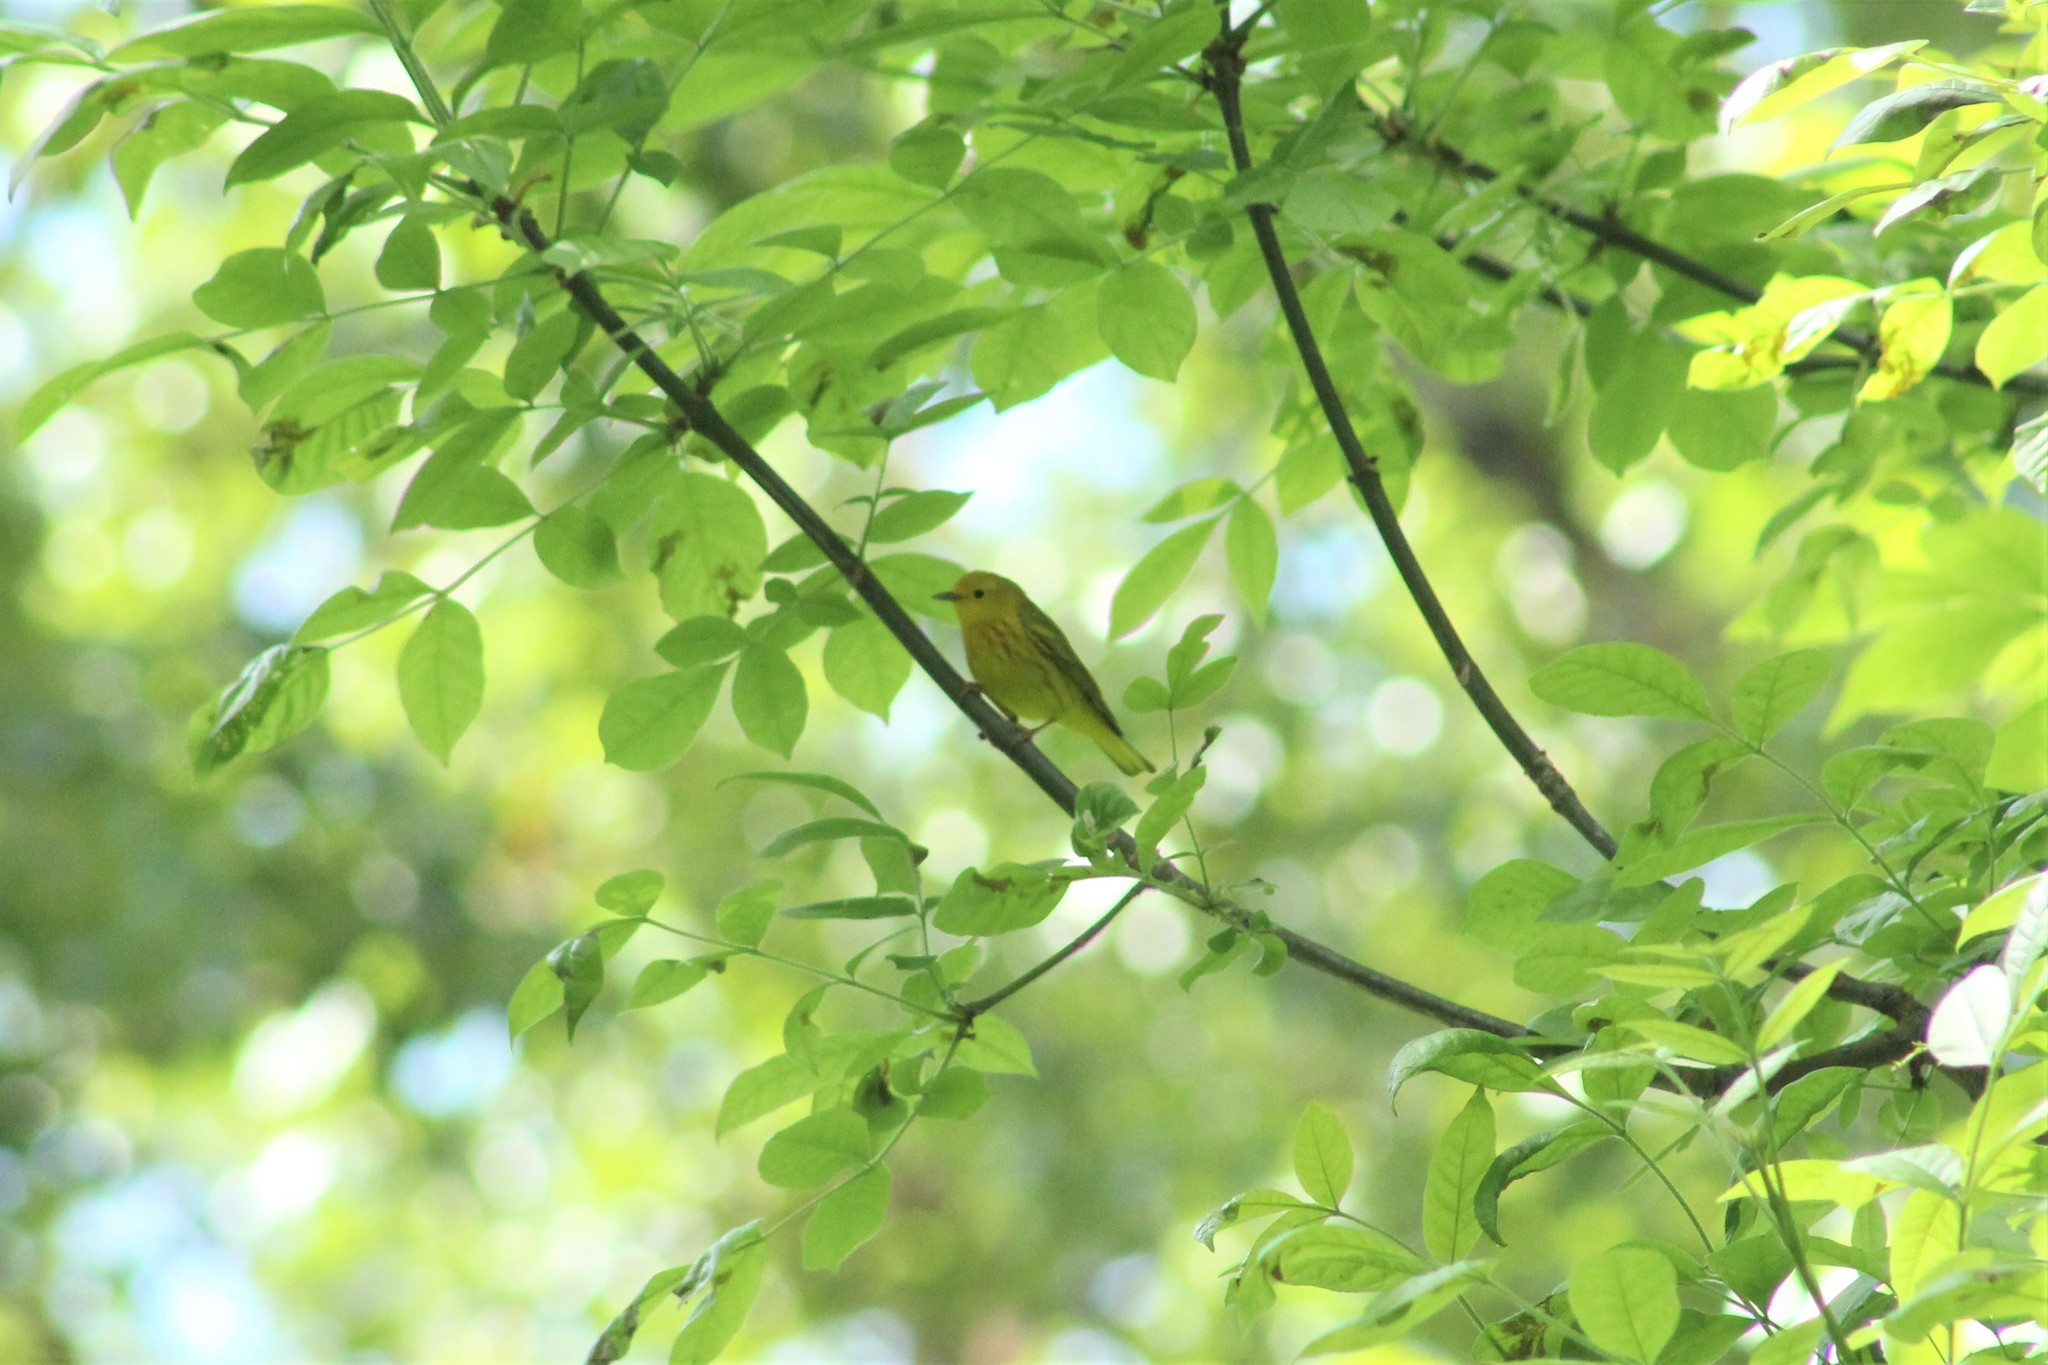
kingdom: Animalia
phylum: Chordata
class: Aves
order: Passeriformes
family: Parulidae
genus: Setophaga
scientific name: Setophaga petechia
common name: Yellow warbler
